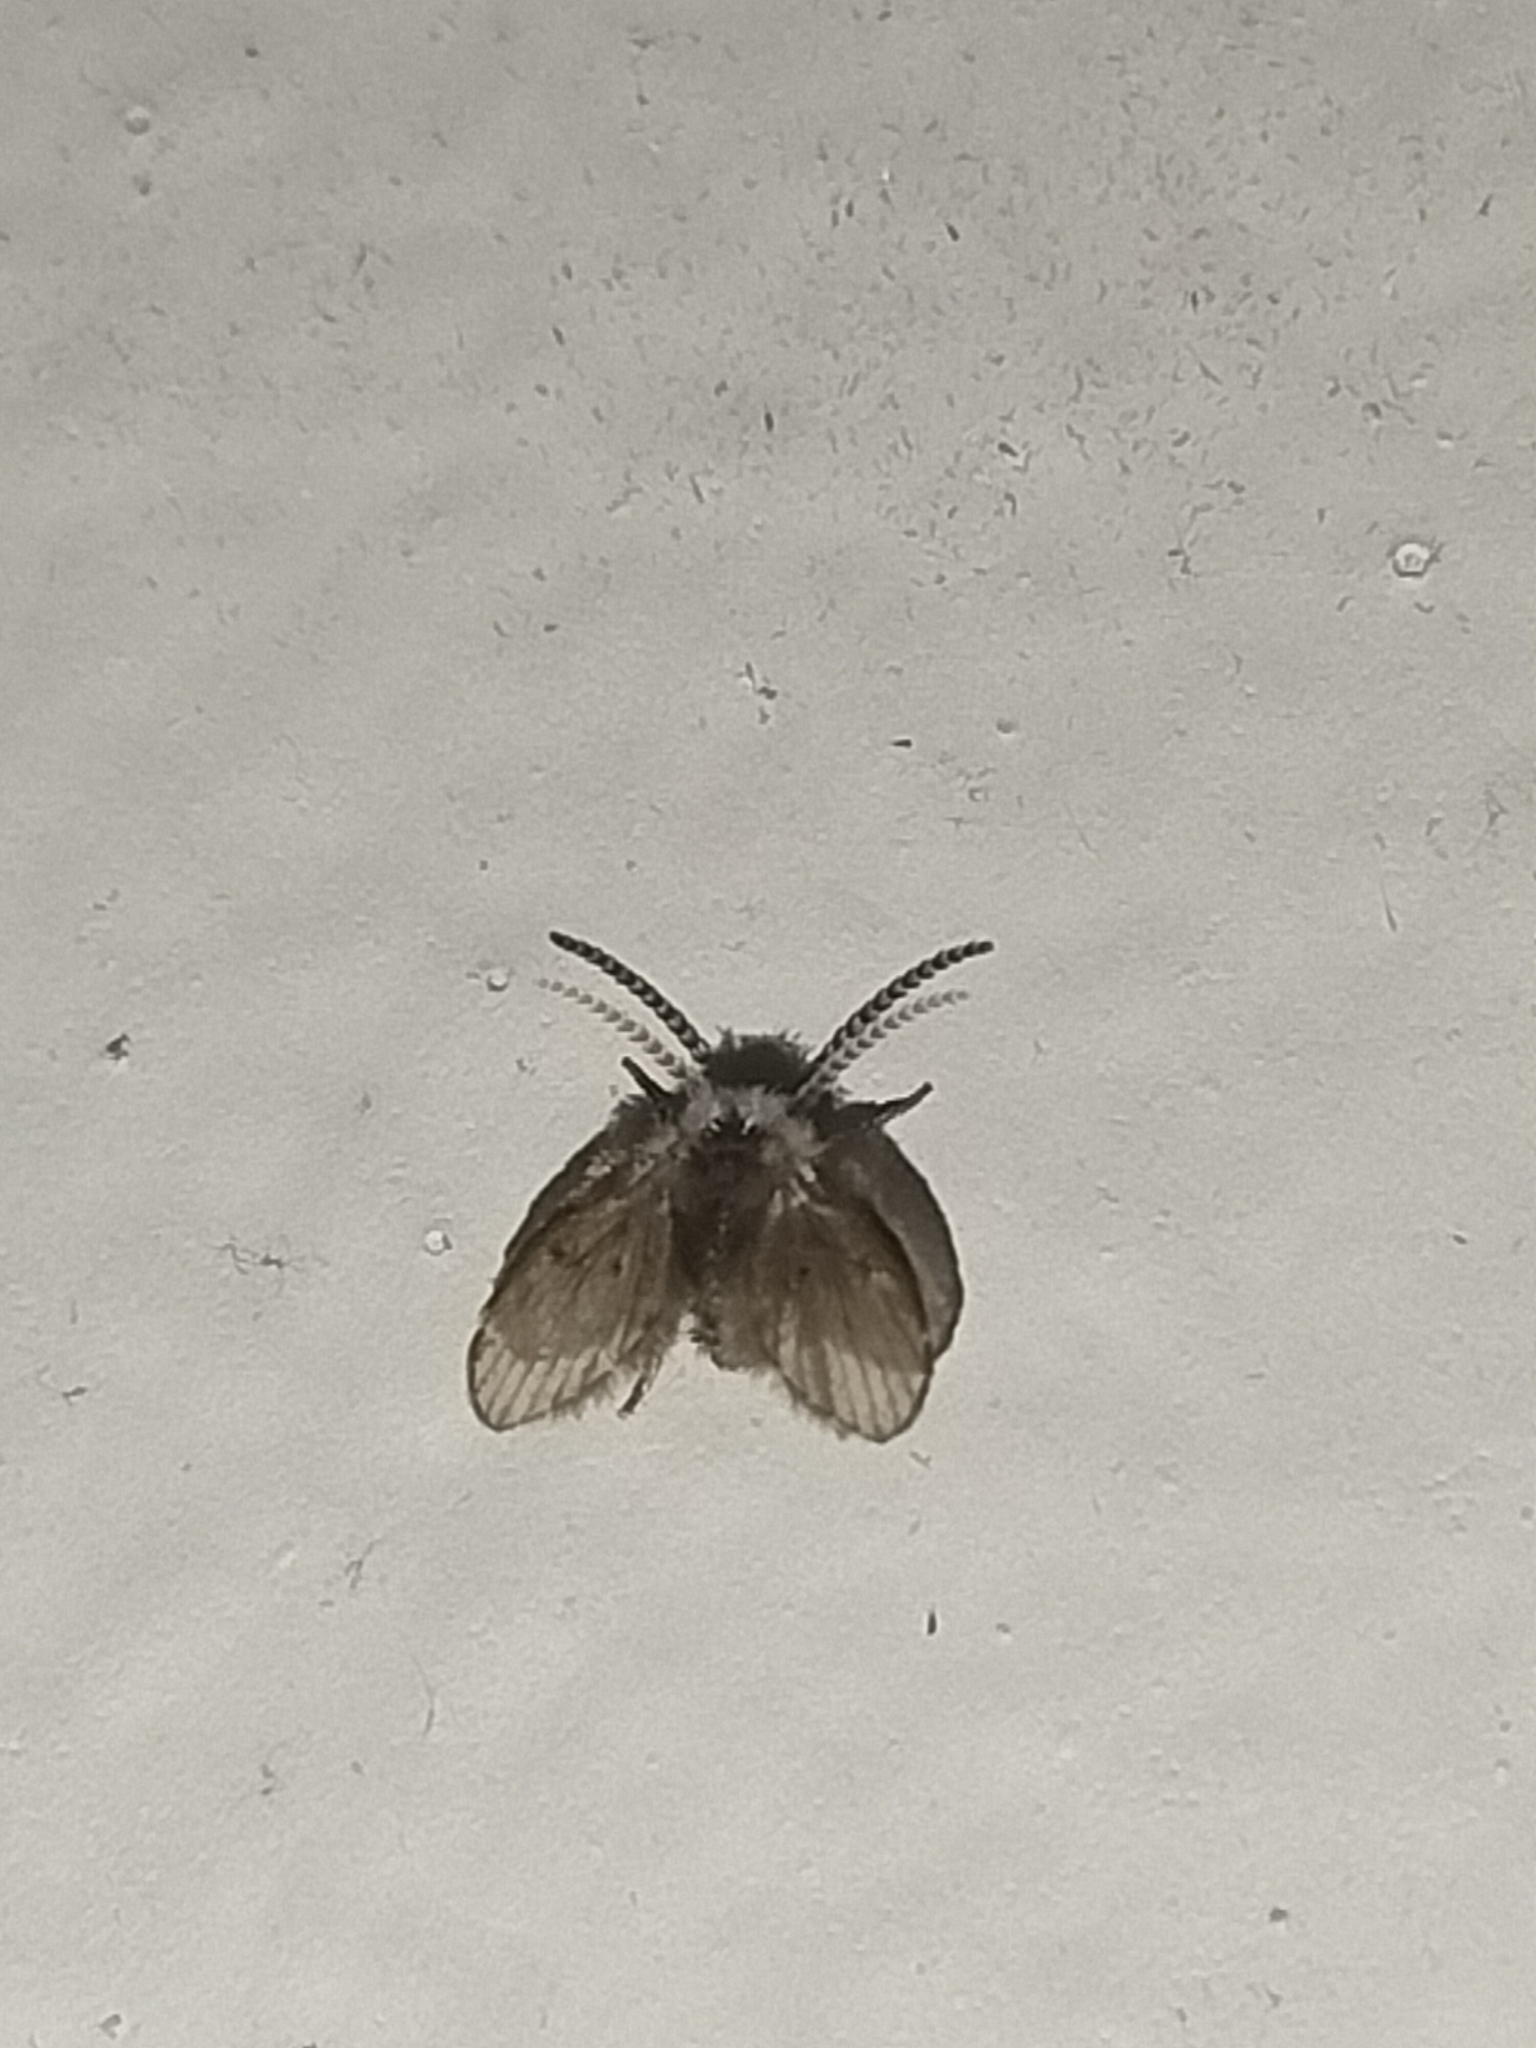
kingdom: Animalia
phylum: Arthropoda
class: Insecta
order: Diptera
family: Psychodidae
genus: Clogmia
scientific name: Clogmia albipunctatus
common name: White-spotted moth fly
